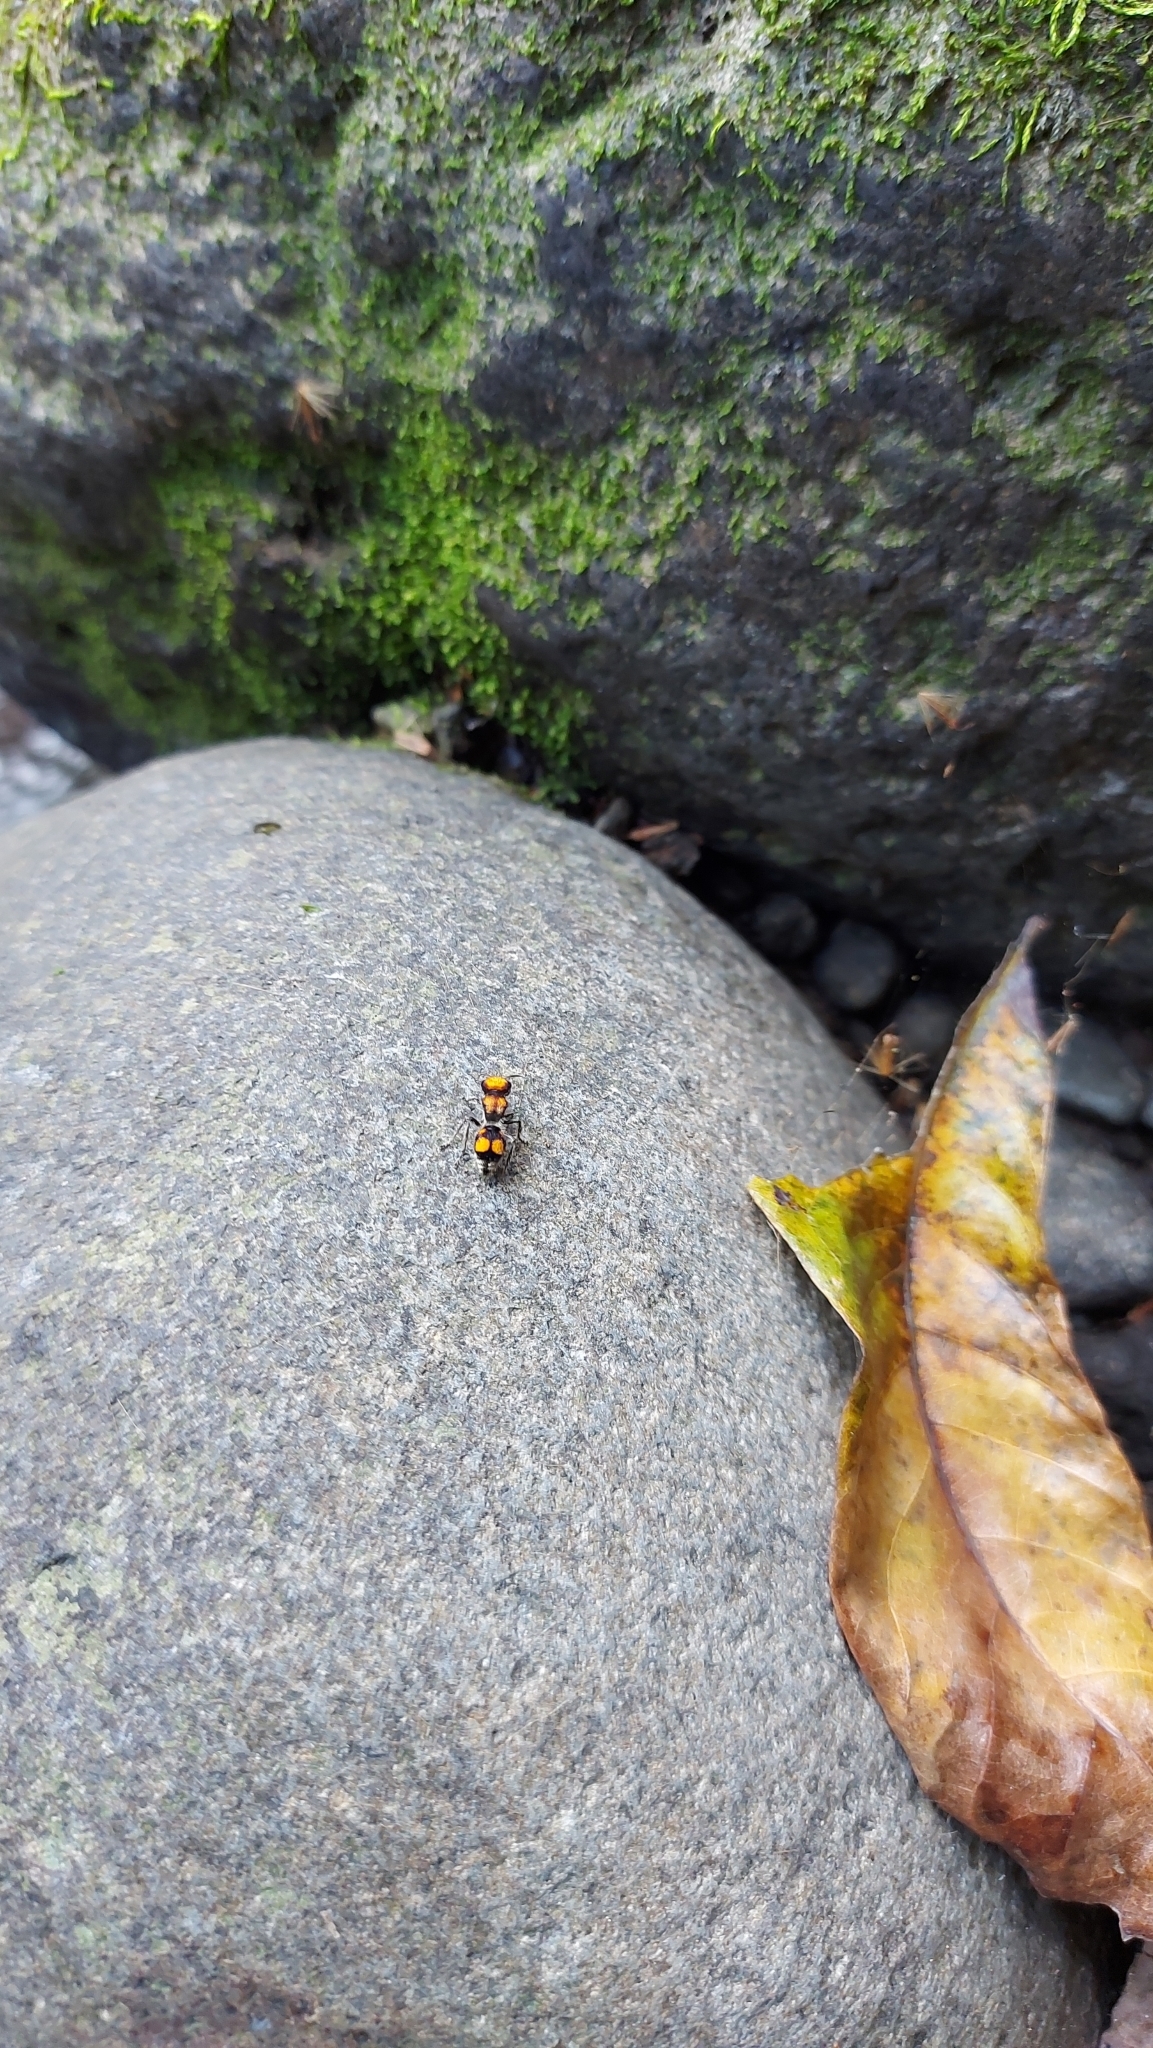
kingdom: Animalia
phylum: Arthropoda
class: Insecta
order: Hymenoptera
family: Mutillidae
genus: Pseudomethoca
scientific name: Pseudomethoca
